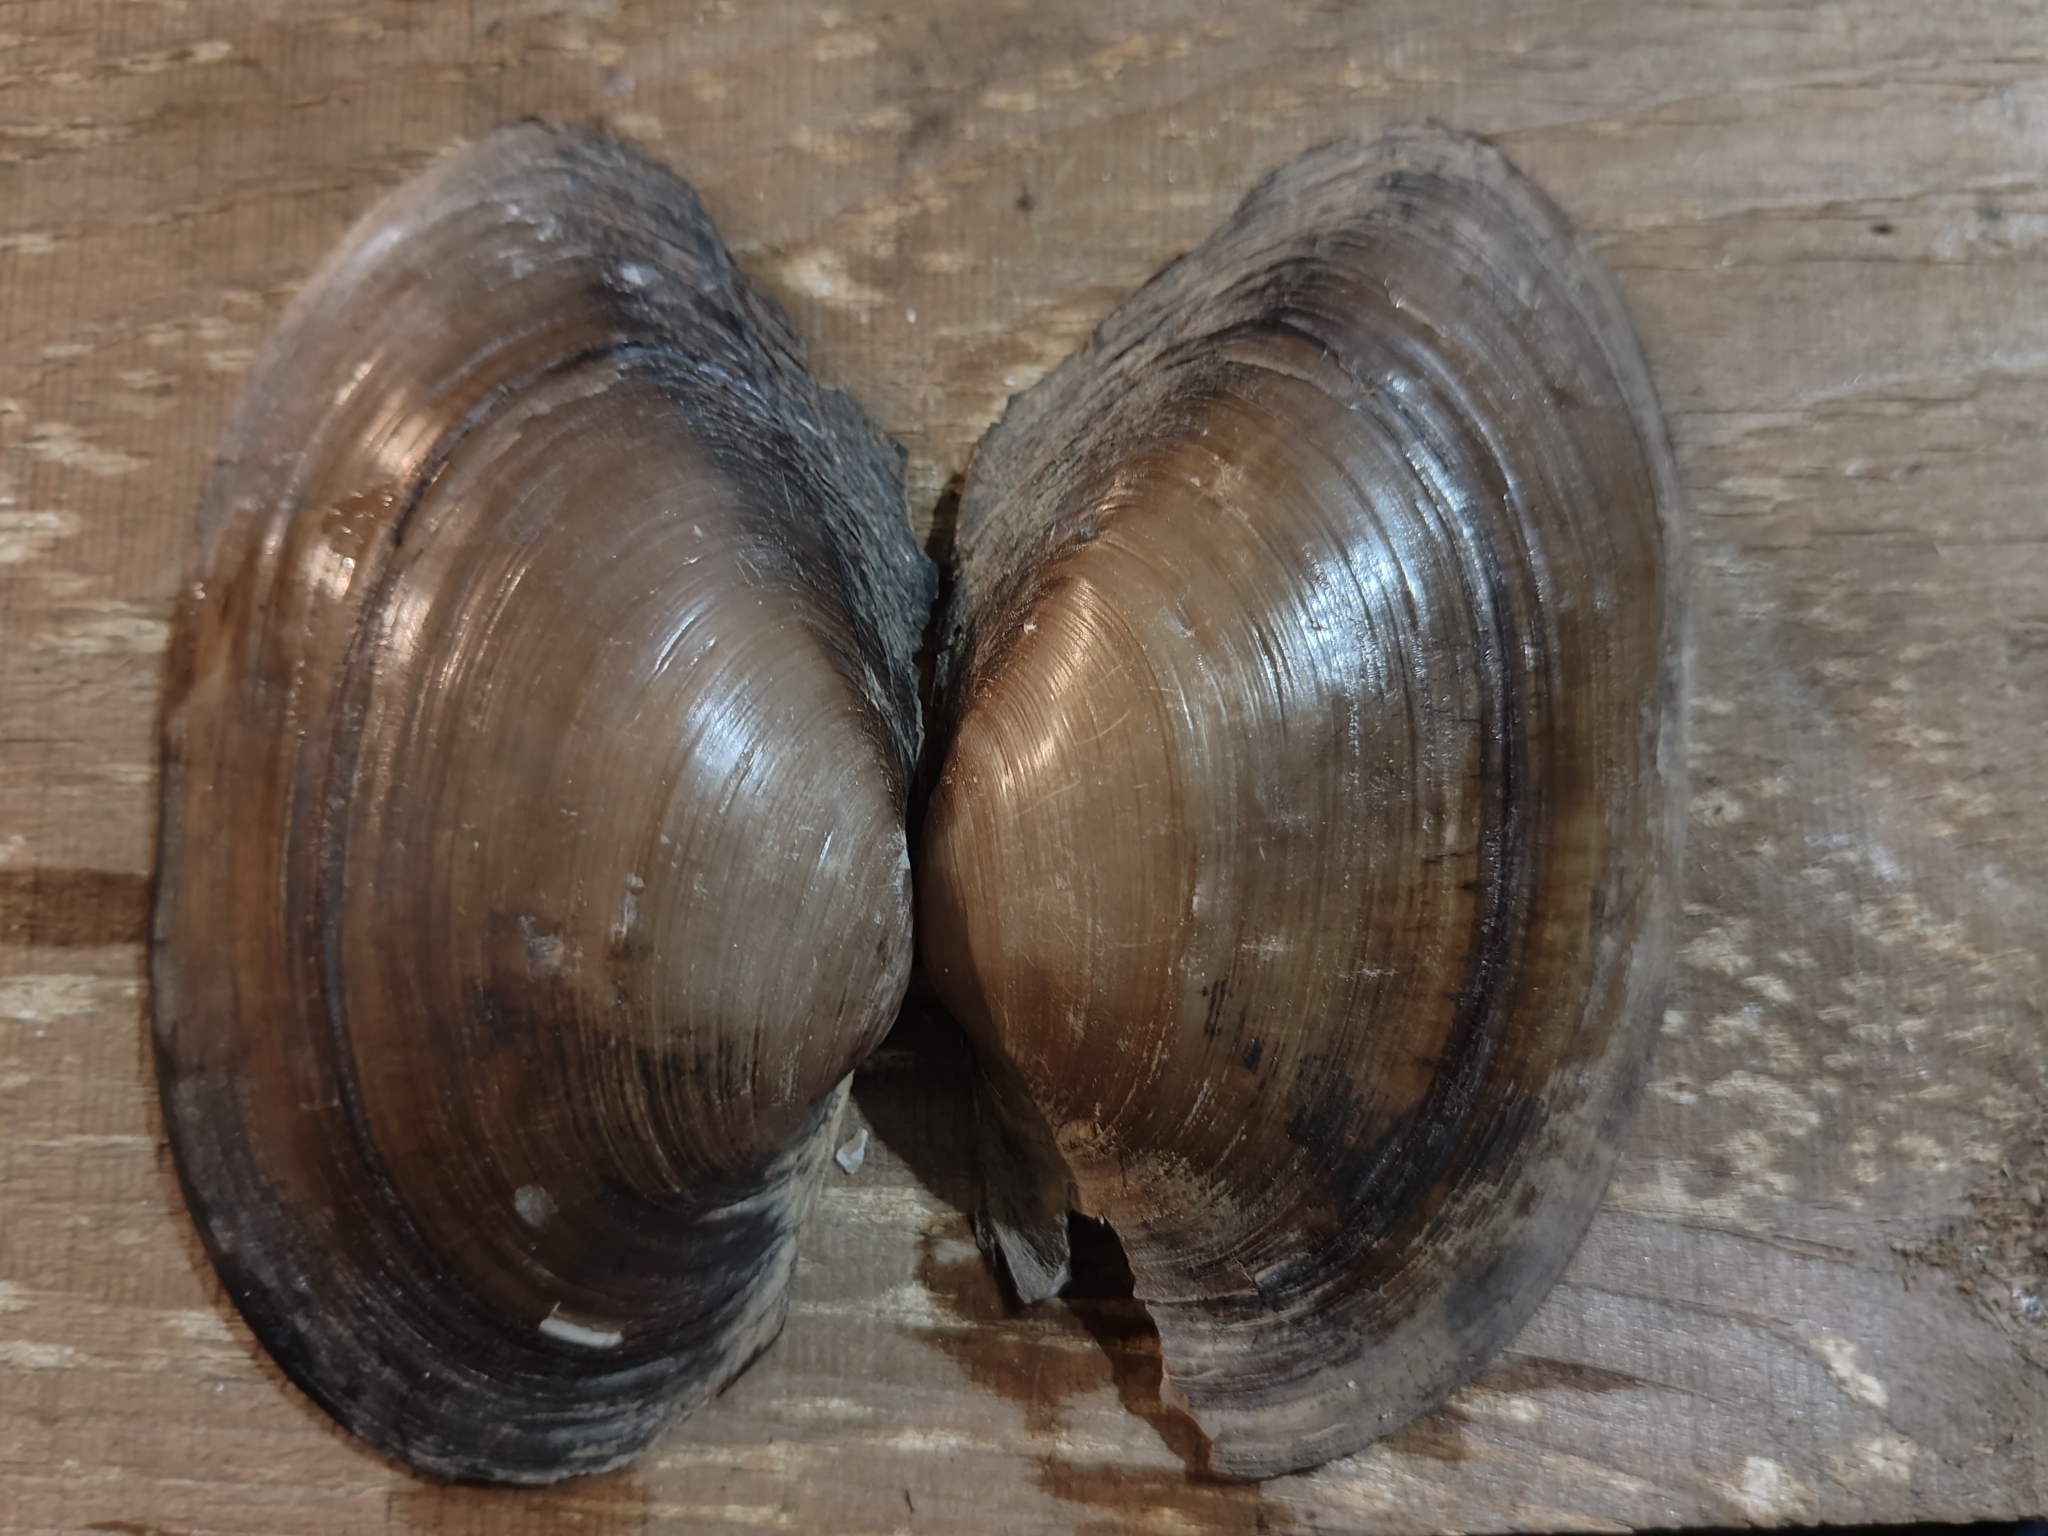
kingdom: Animalia
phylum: Mollusca
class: Bivalvia
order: Unionida
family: Unionidae
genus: Pyganodon
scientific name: Pyganodon grandis
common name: Giant floater
